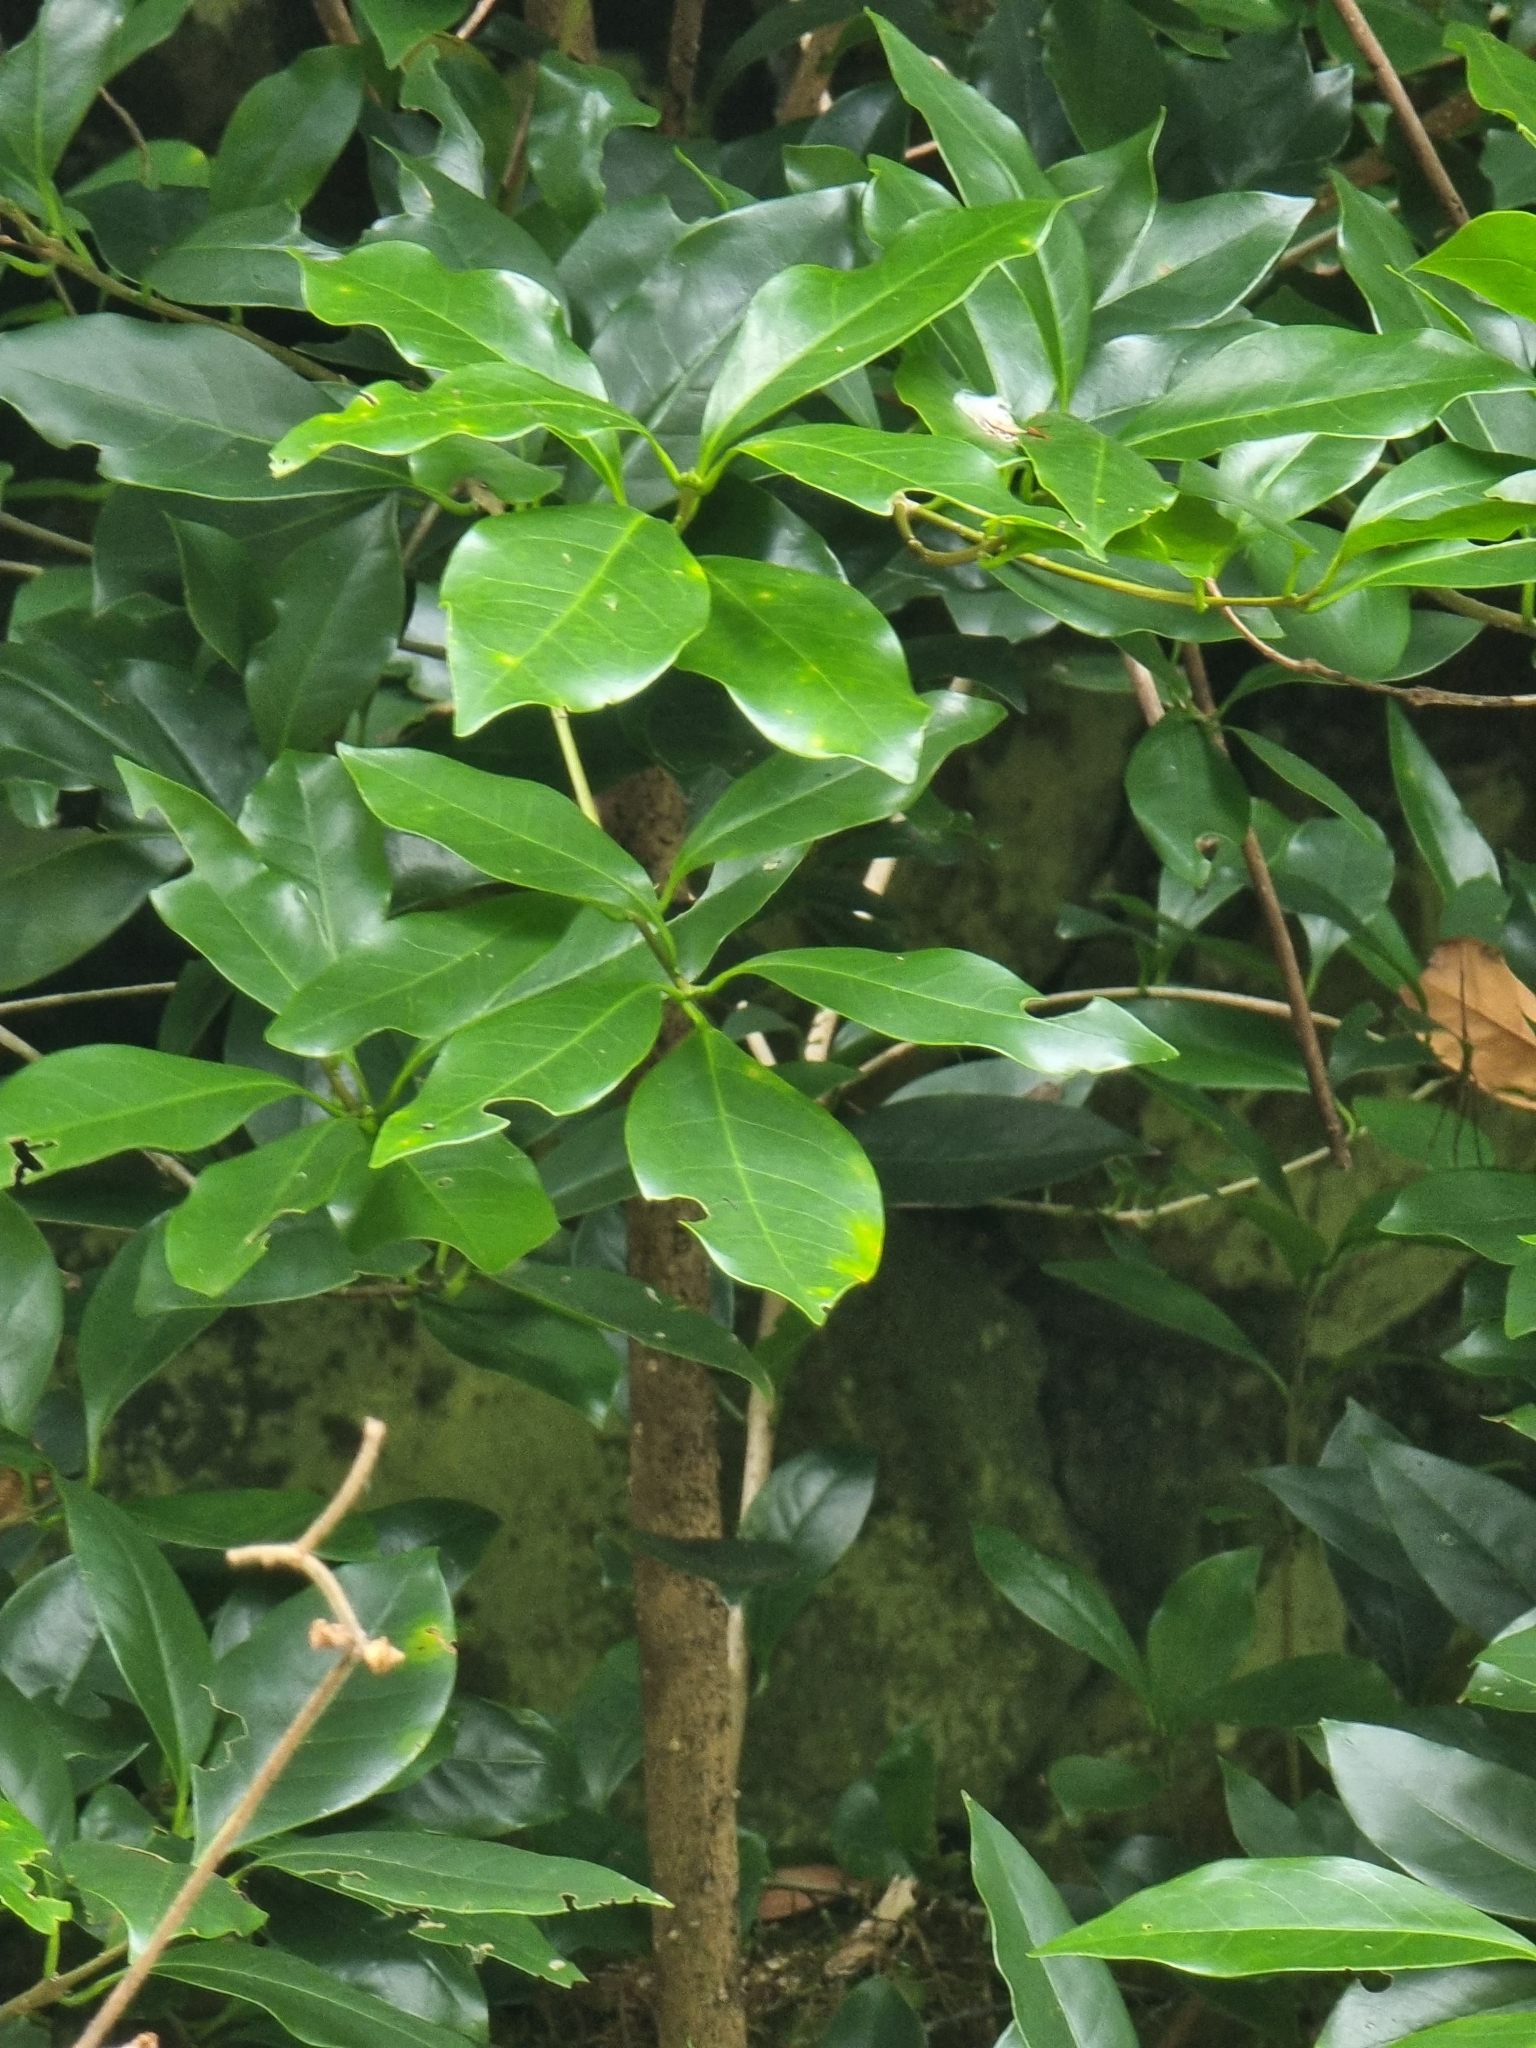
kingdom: Plantae
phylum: Tracheophyta
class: Magnoliopsida
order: Lamiales
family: Oleaceae
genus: Picconia
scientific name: Picconia excelsa
